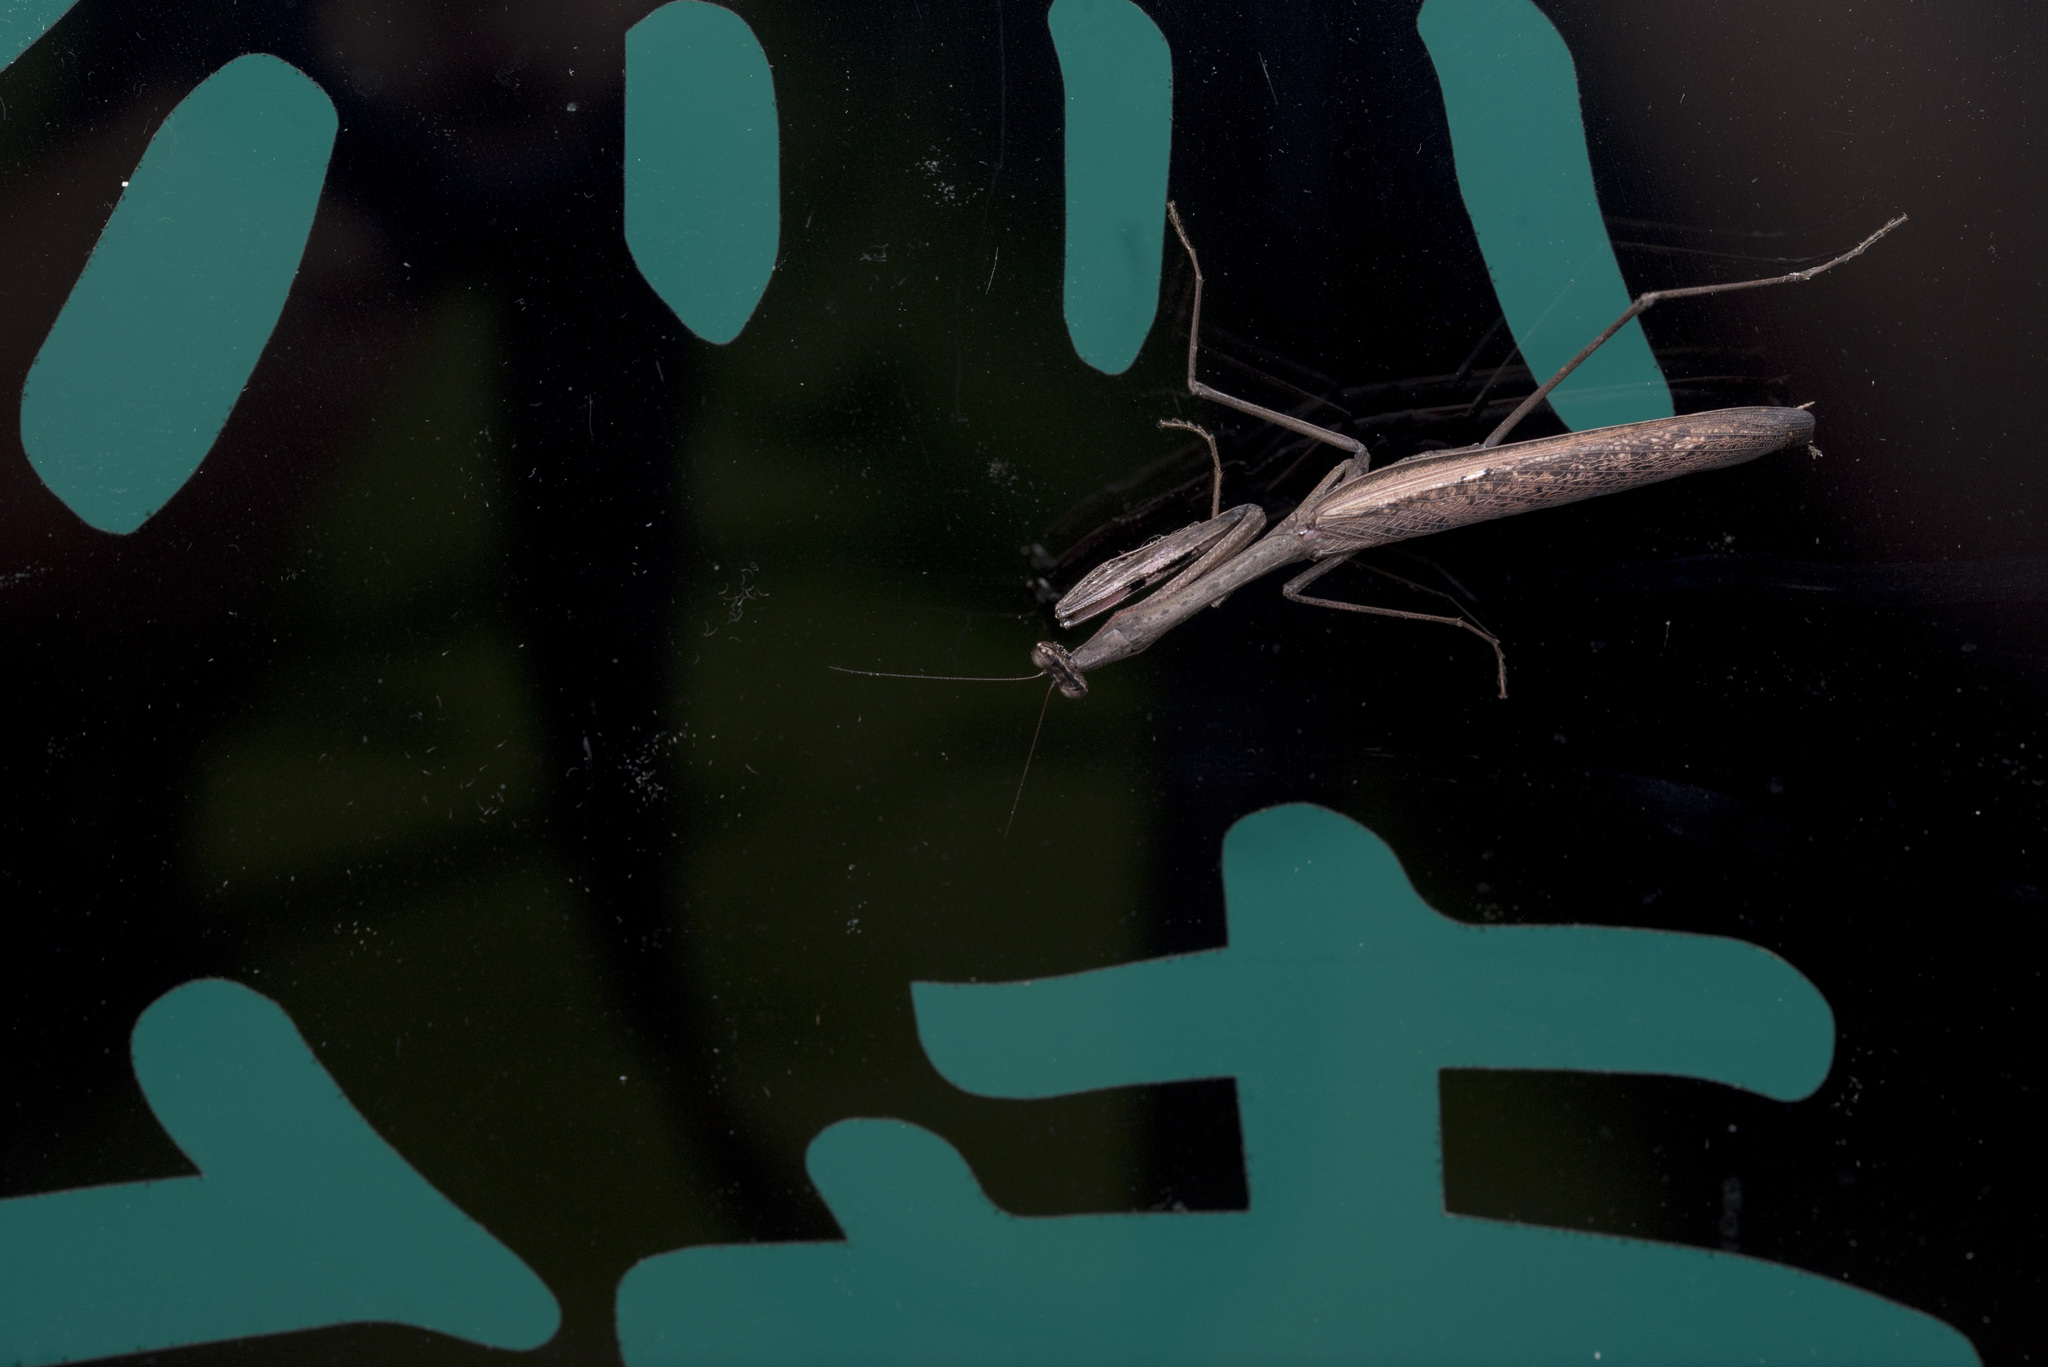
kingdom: Animalia
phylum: Arthropoda
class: Insecta
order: Mantodea
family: Mantidae
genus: Statilia
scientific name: Statilia maculata
